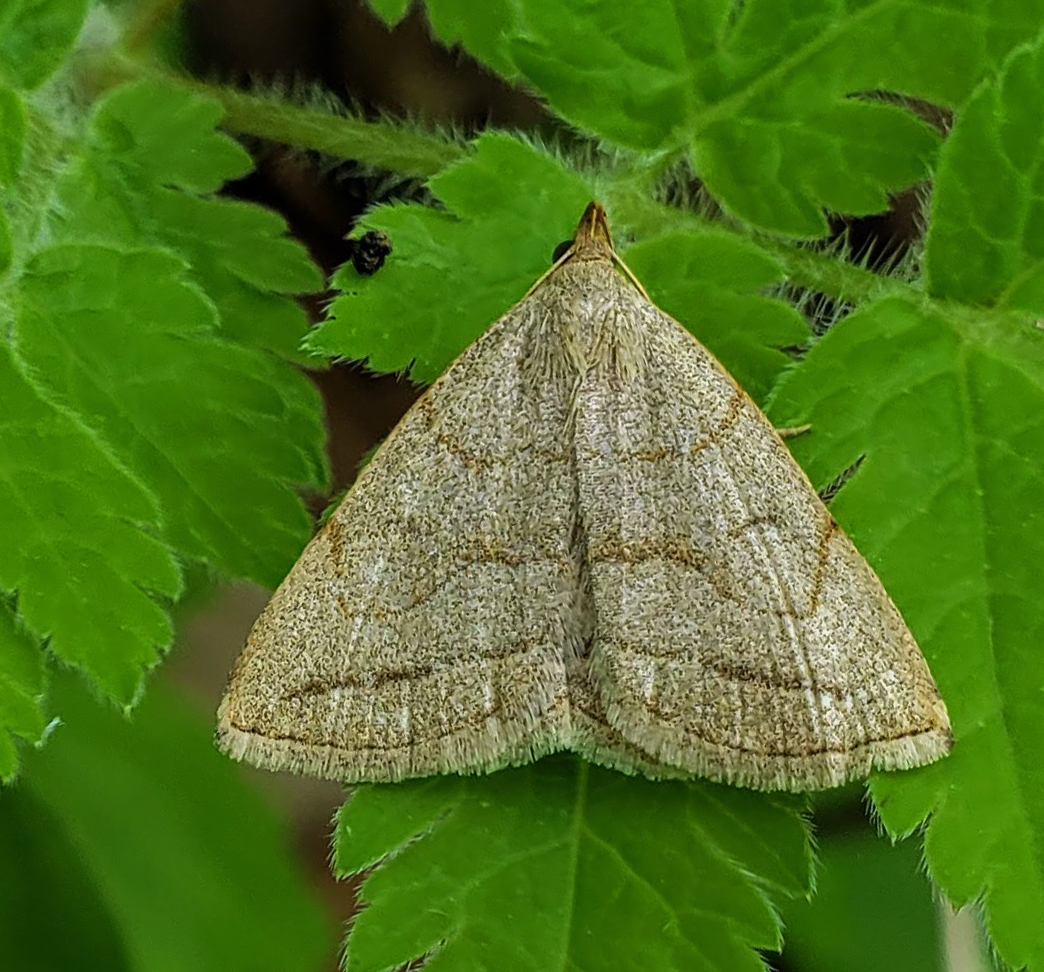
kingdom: Animalia
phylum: Arthropoda
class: Insecta
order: Lepidoptera
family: Erebidae
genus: Zanclognatha
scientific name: Zanclognatha pedipilalis
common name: Grayish fan-foot
